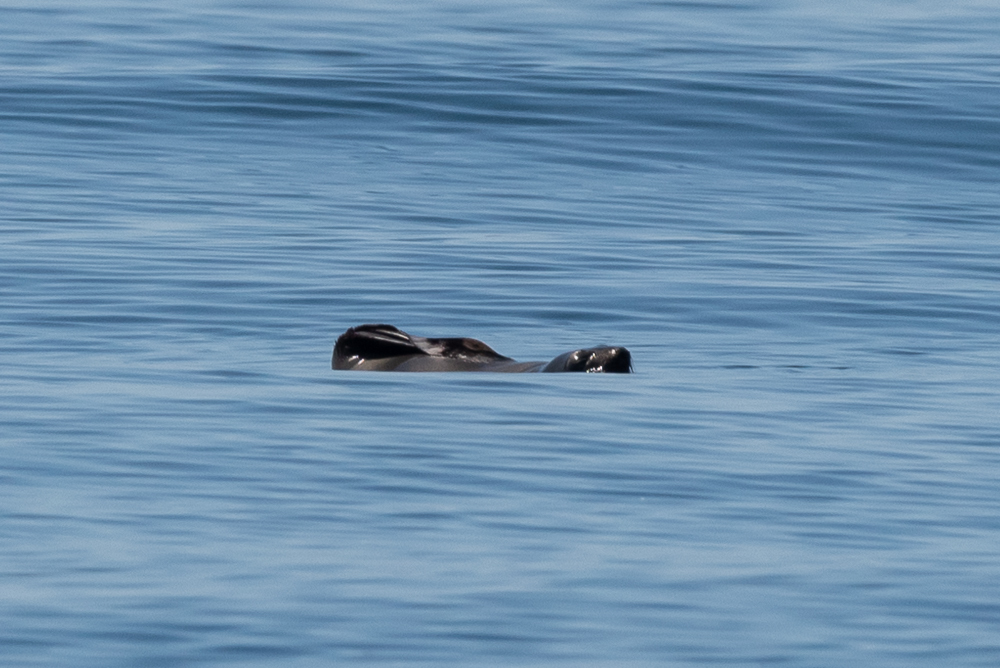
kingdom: Animalia
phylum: Chordata
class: Mammalia
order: Carnivora
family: Otariidae
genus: Zalophus
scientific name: Zalophus californianus
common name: California sea lion
